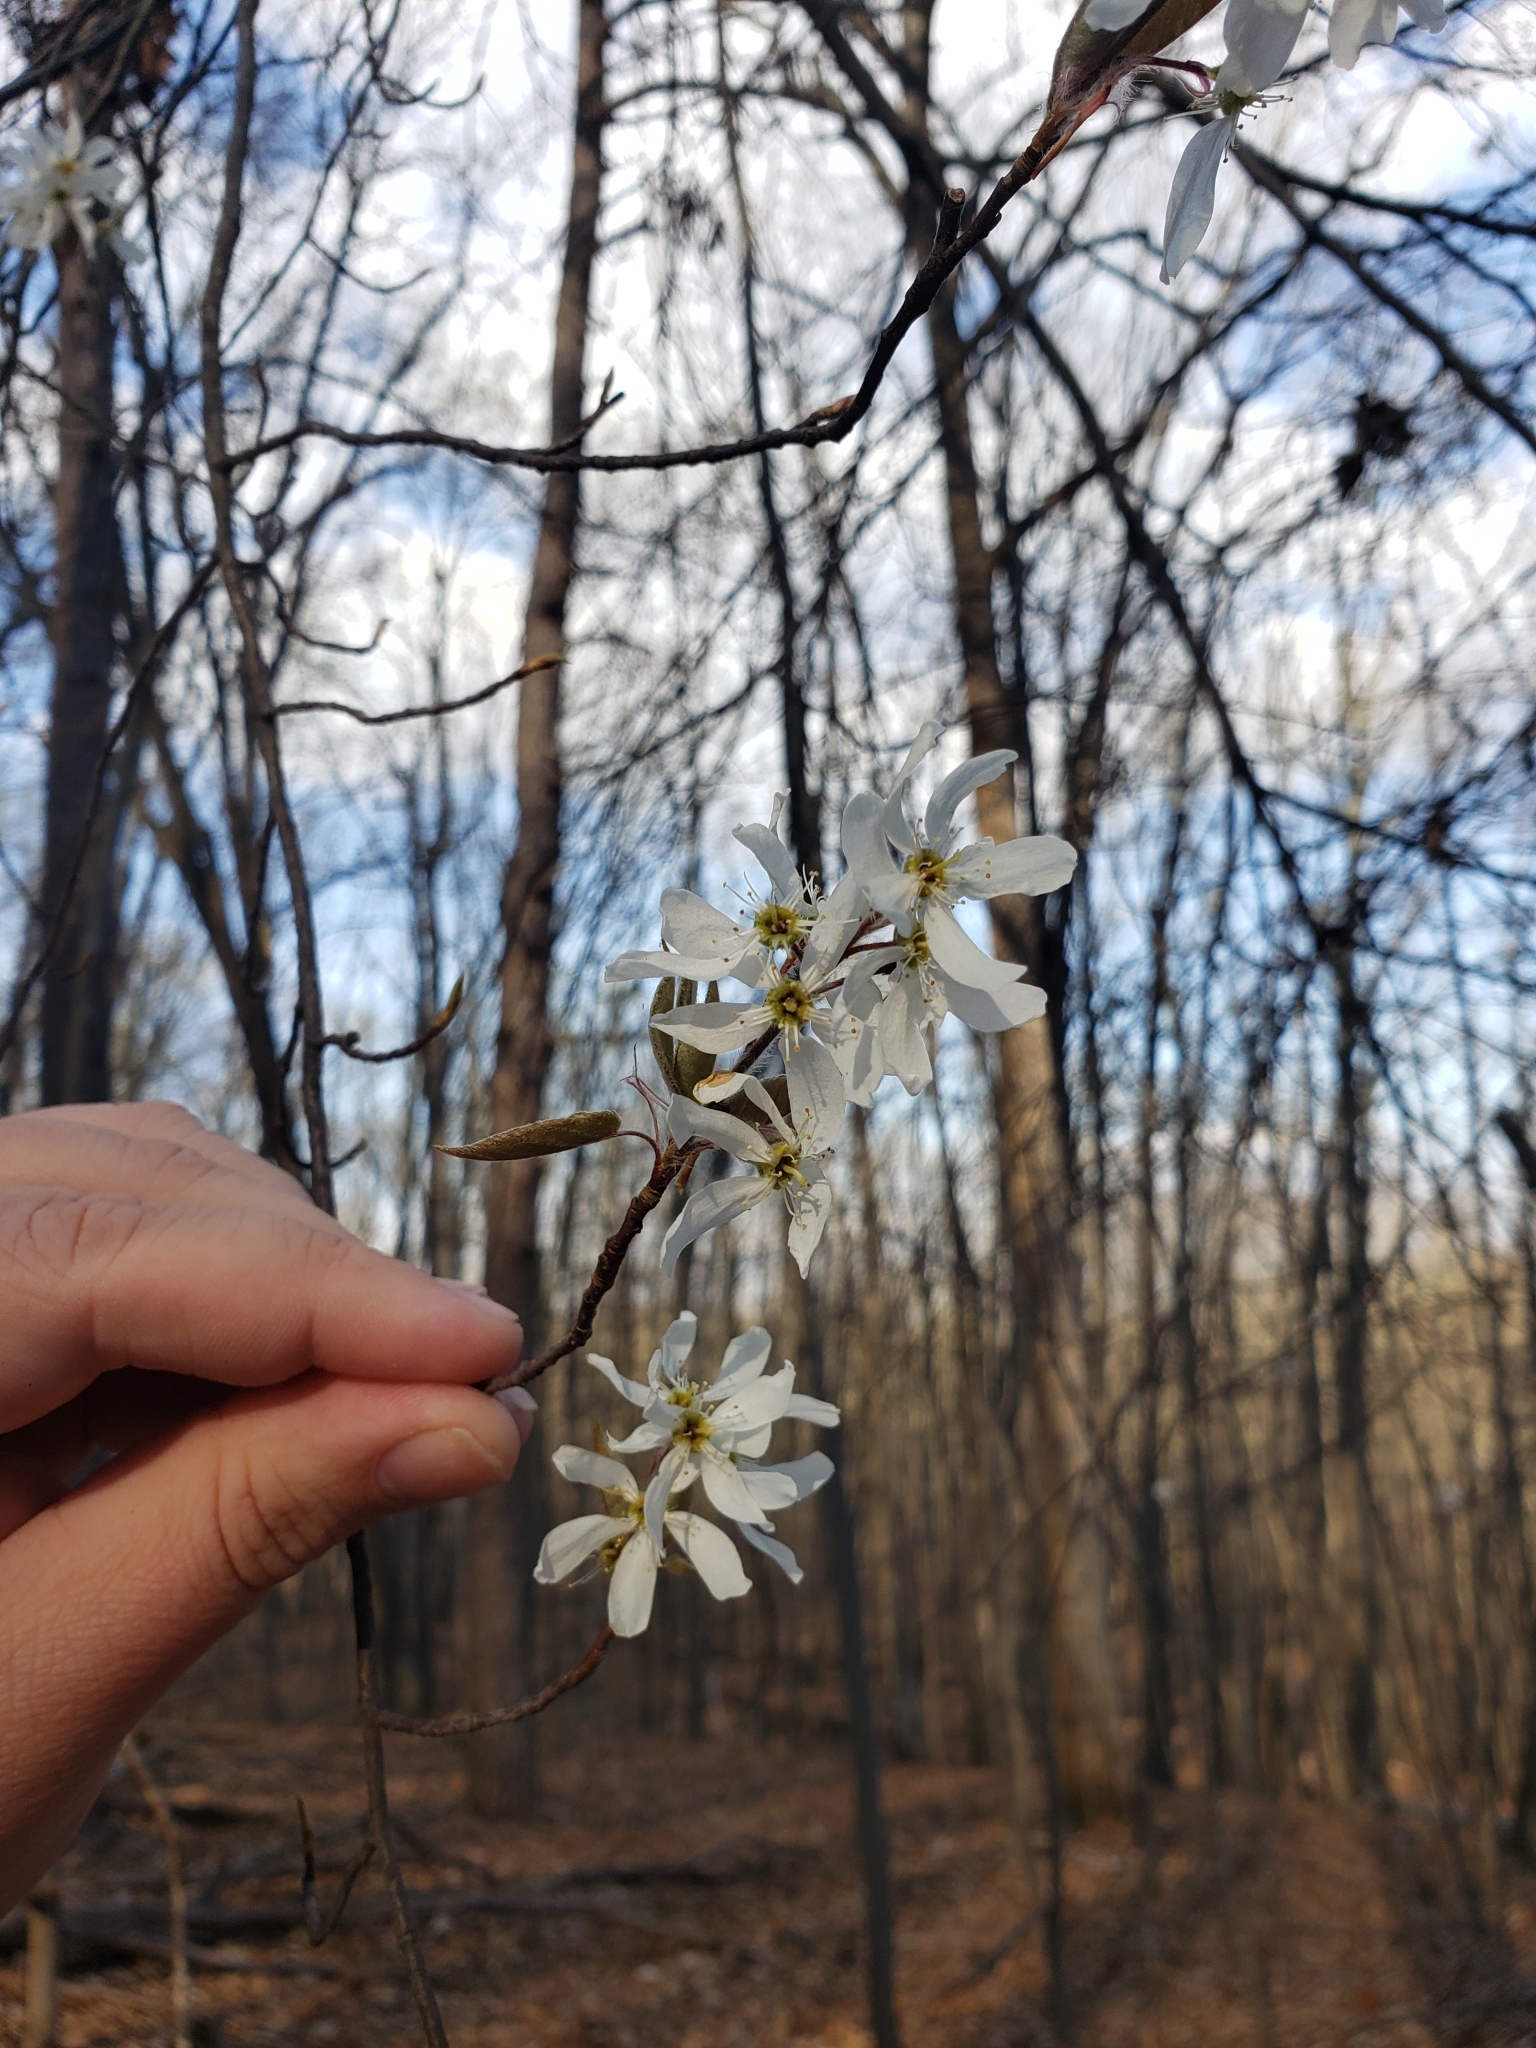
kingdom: Plantae
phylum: Tracheophyta
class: Magnoliopsida
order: Rosales
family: Rosaceae
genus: Amelanchier
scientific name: Amelanchier arborea
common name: Downy serviceberry
